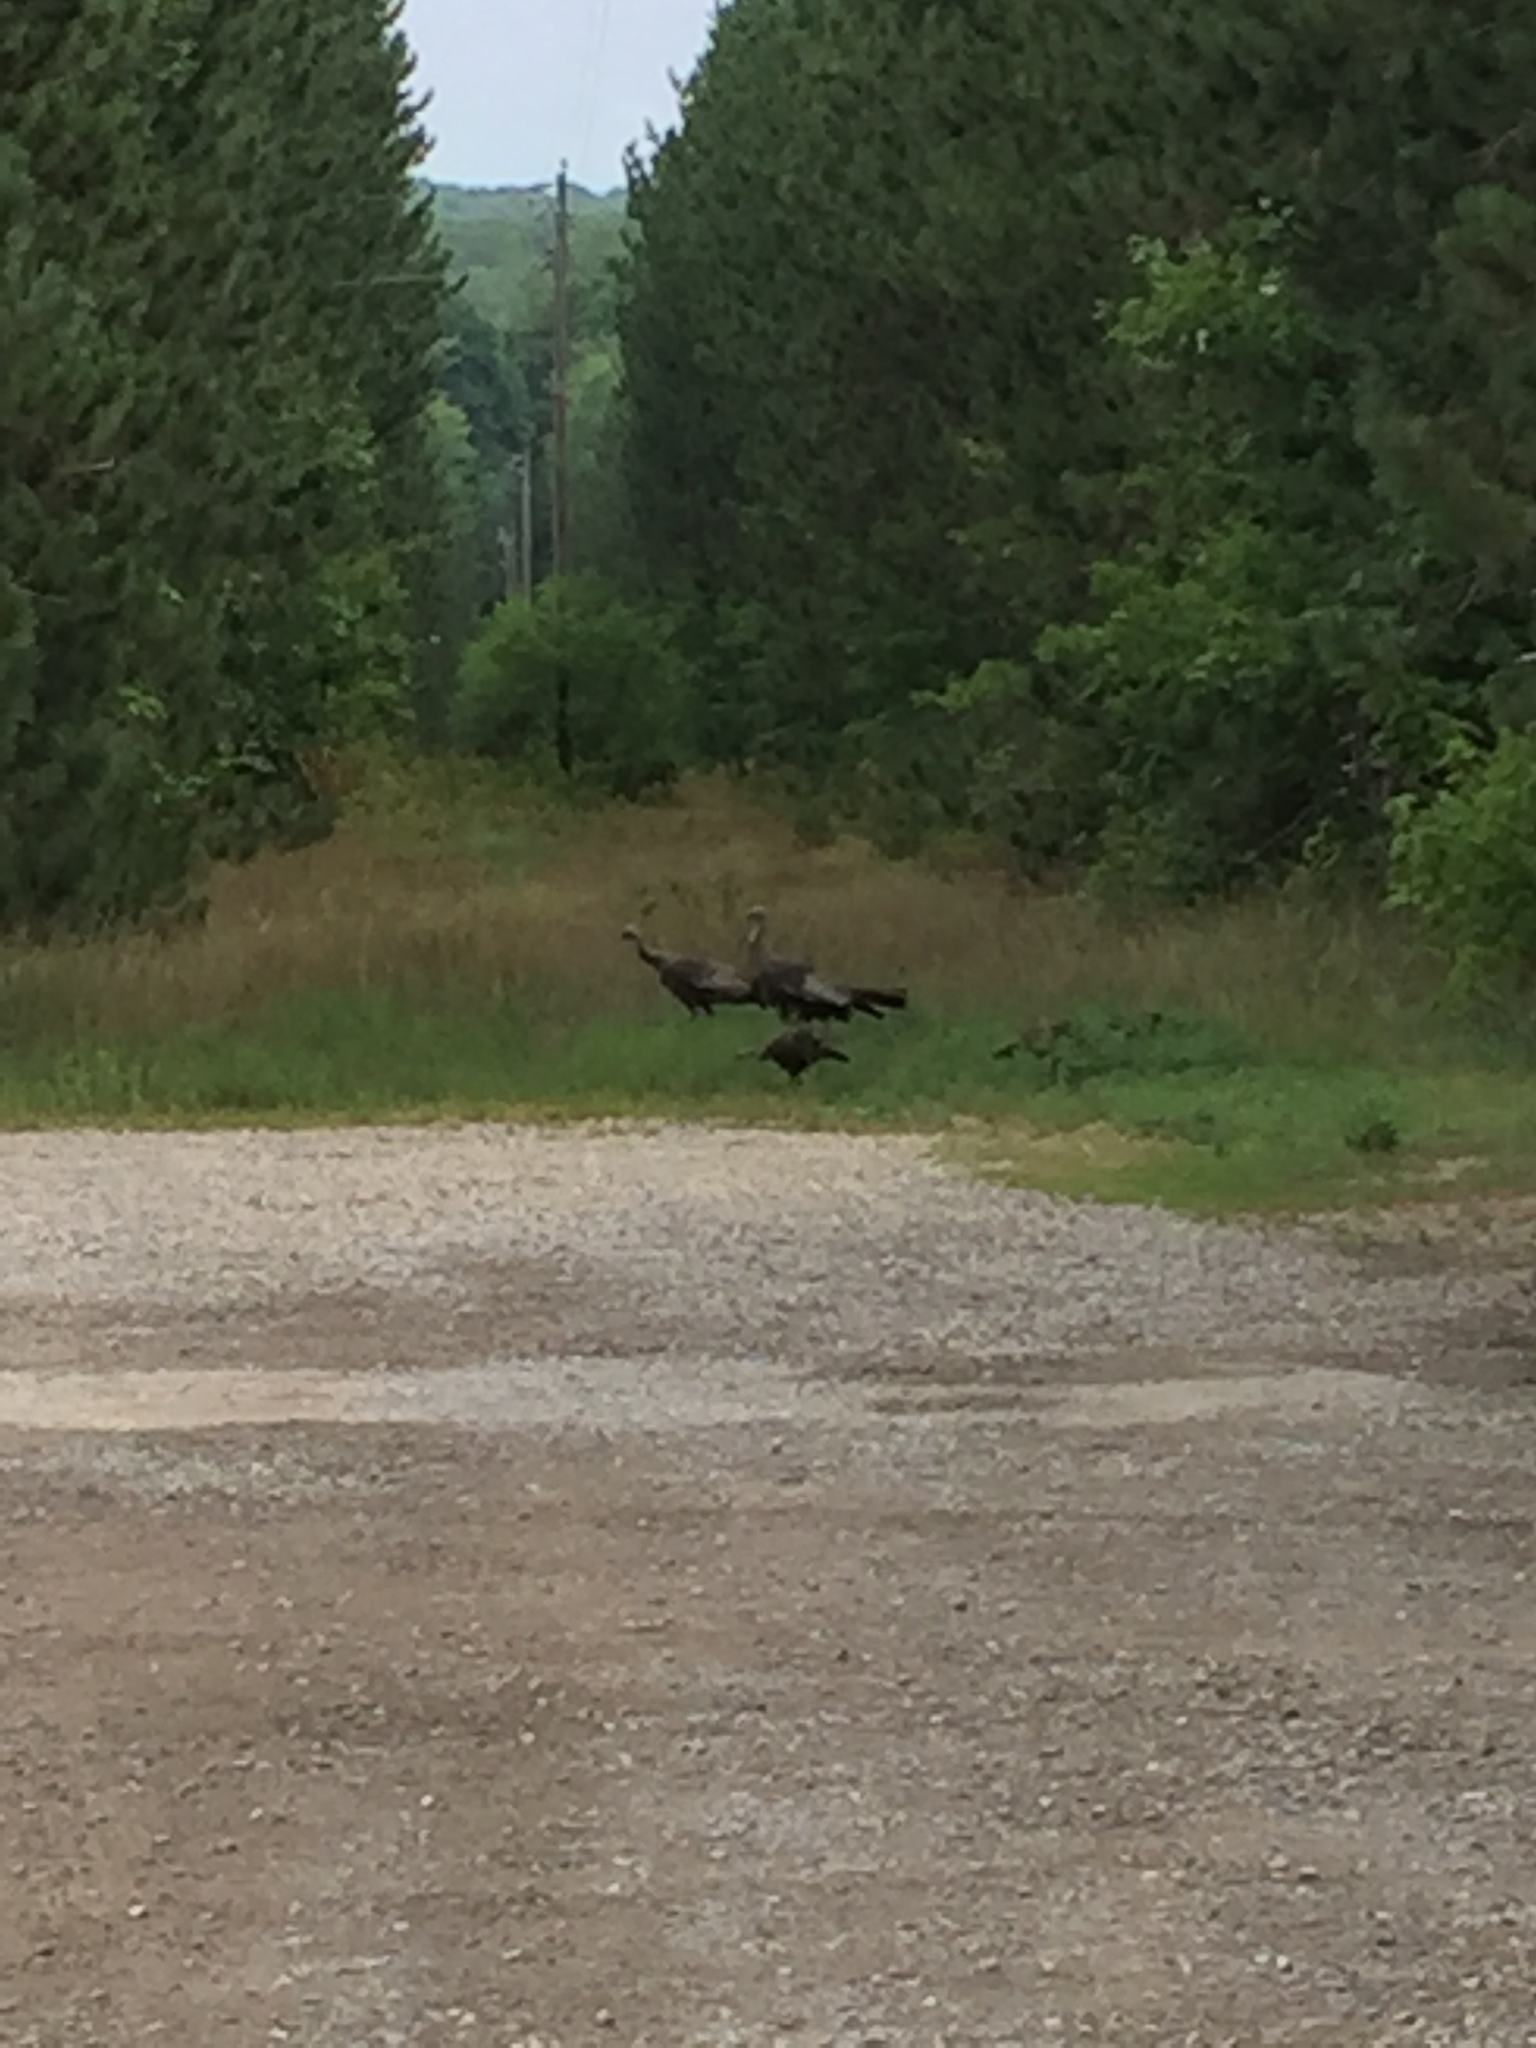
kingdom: Animalia
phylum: Chordata
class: Aves
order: Galliformes
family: Phasianidae
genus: Meleagris
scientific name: Meleagris gallopavo
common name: Wild turkey
